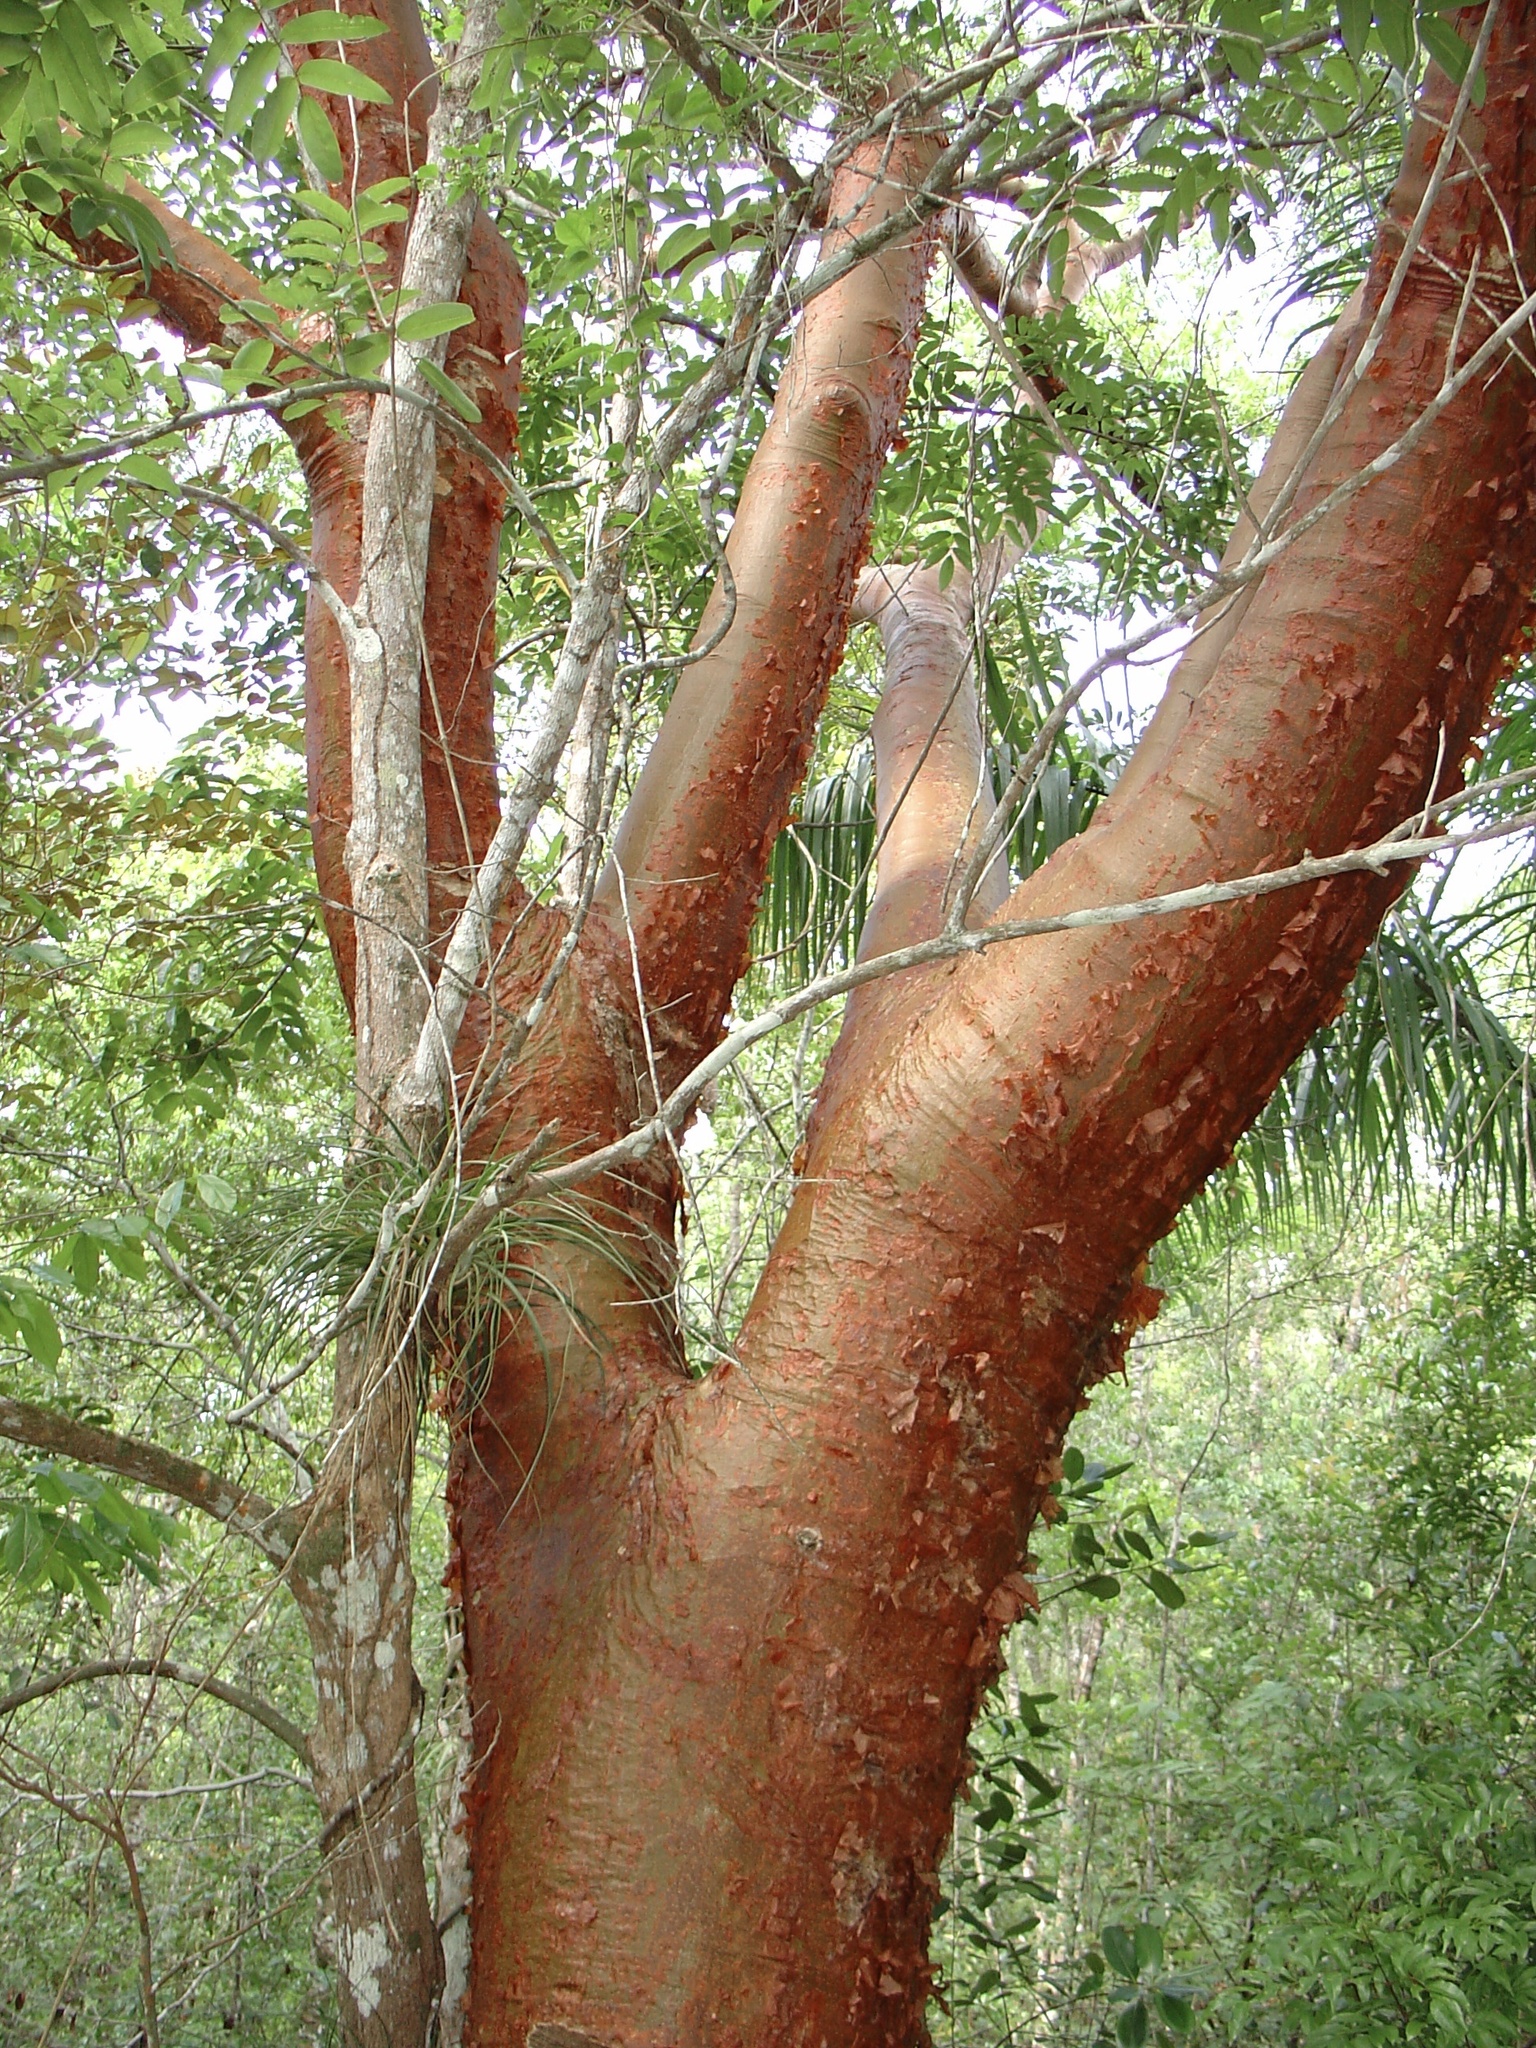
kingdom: Plantae
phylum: Tracheophyta
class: Magnoliopsida
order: Sapindales
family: Burseraceae
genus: Bursera
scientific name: Bursera simaruba
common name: Turpentine tree
